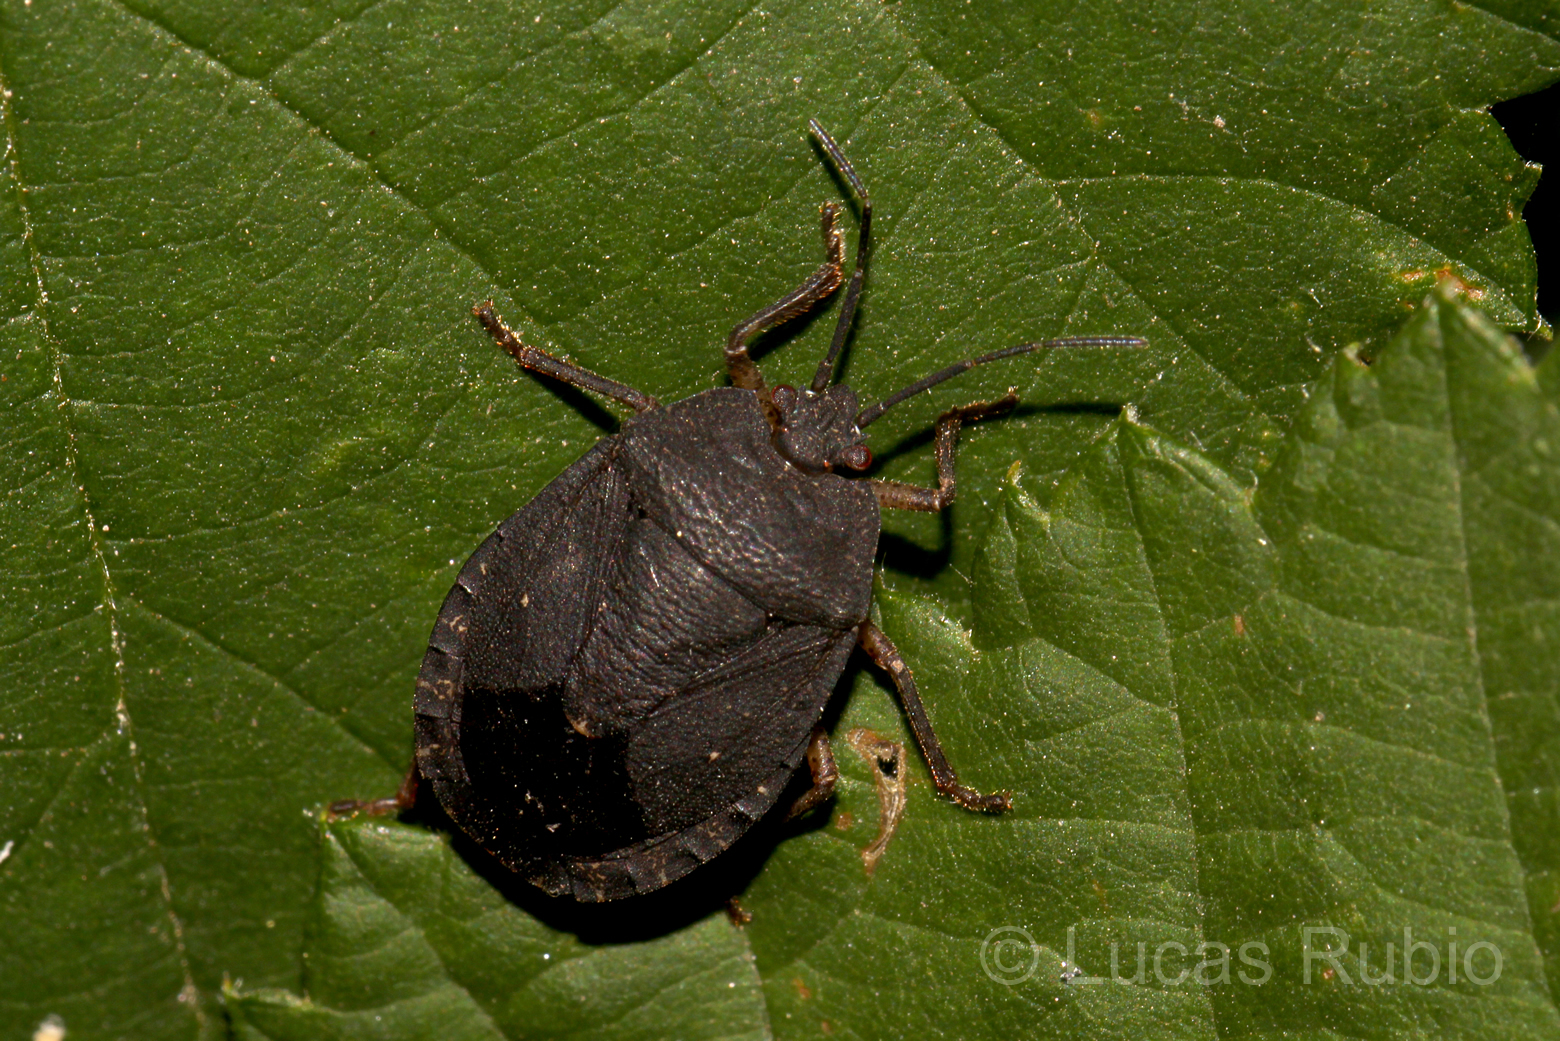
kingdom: Animalia
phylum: Arthropoda
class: Insecta
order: Hemiptera
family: Pentatomidae
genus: Macropygium
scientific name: Macropygium graziae
